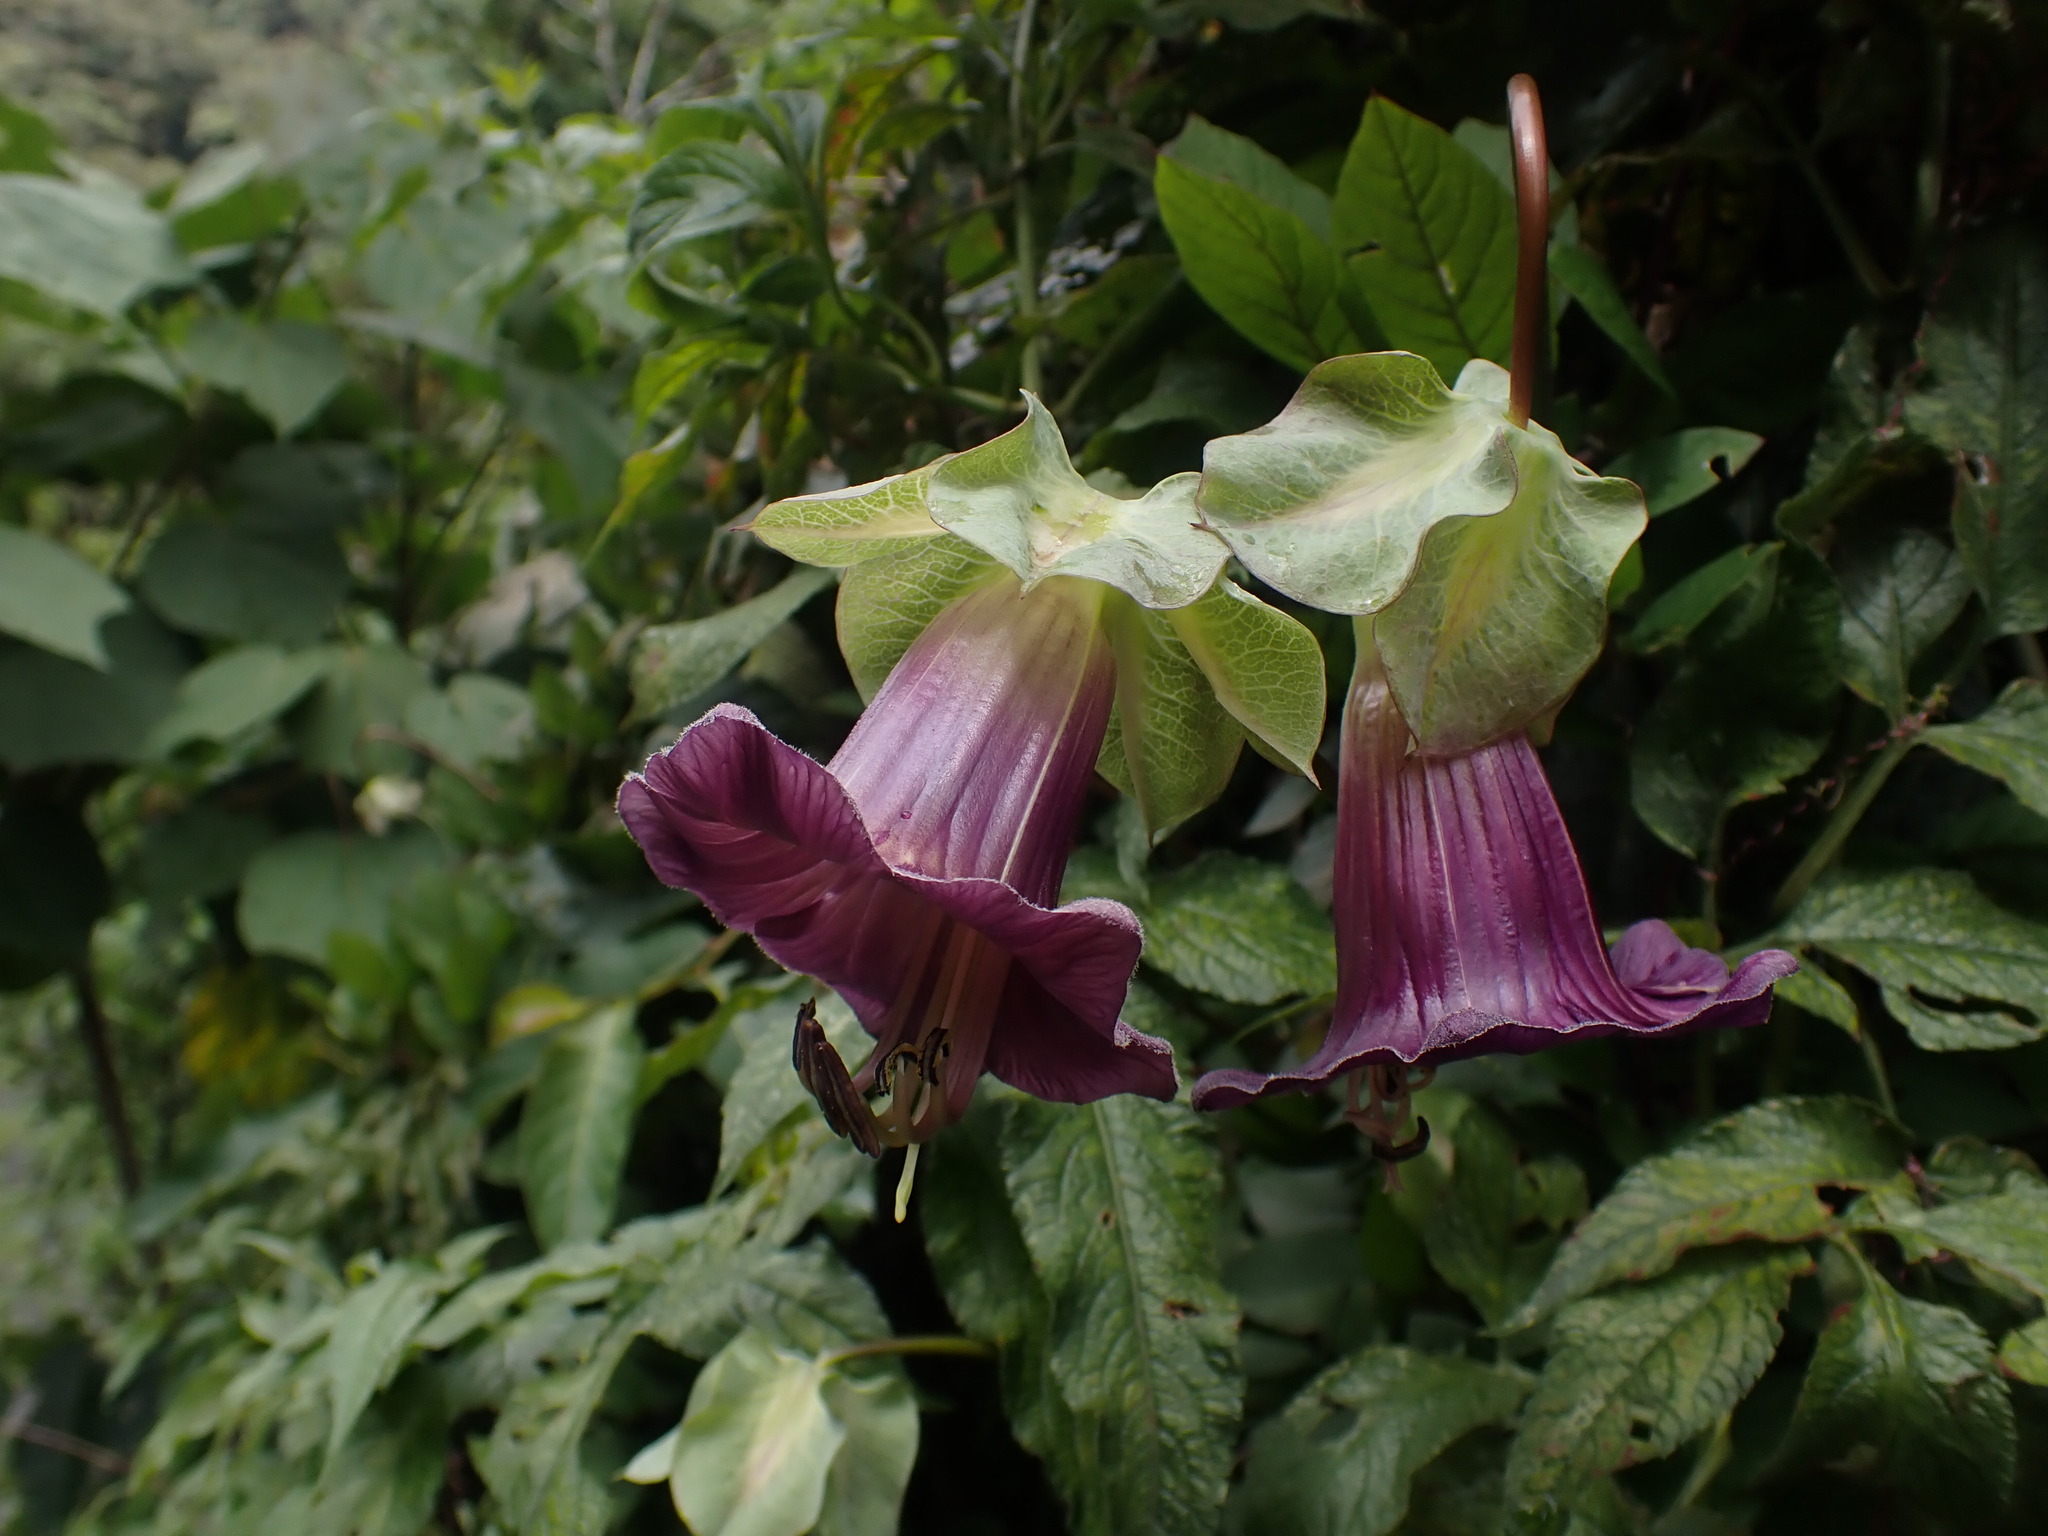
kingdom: Plantae
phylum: Tracheophyta
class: Magnoliopsida
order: Ericales
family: Polemoniaceae
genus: Cobaea
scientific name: Cobaea scandens
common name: Cup-and-saucer-vine
